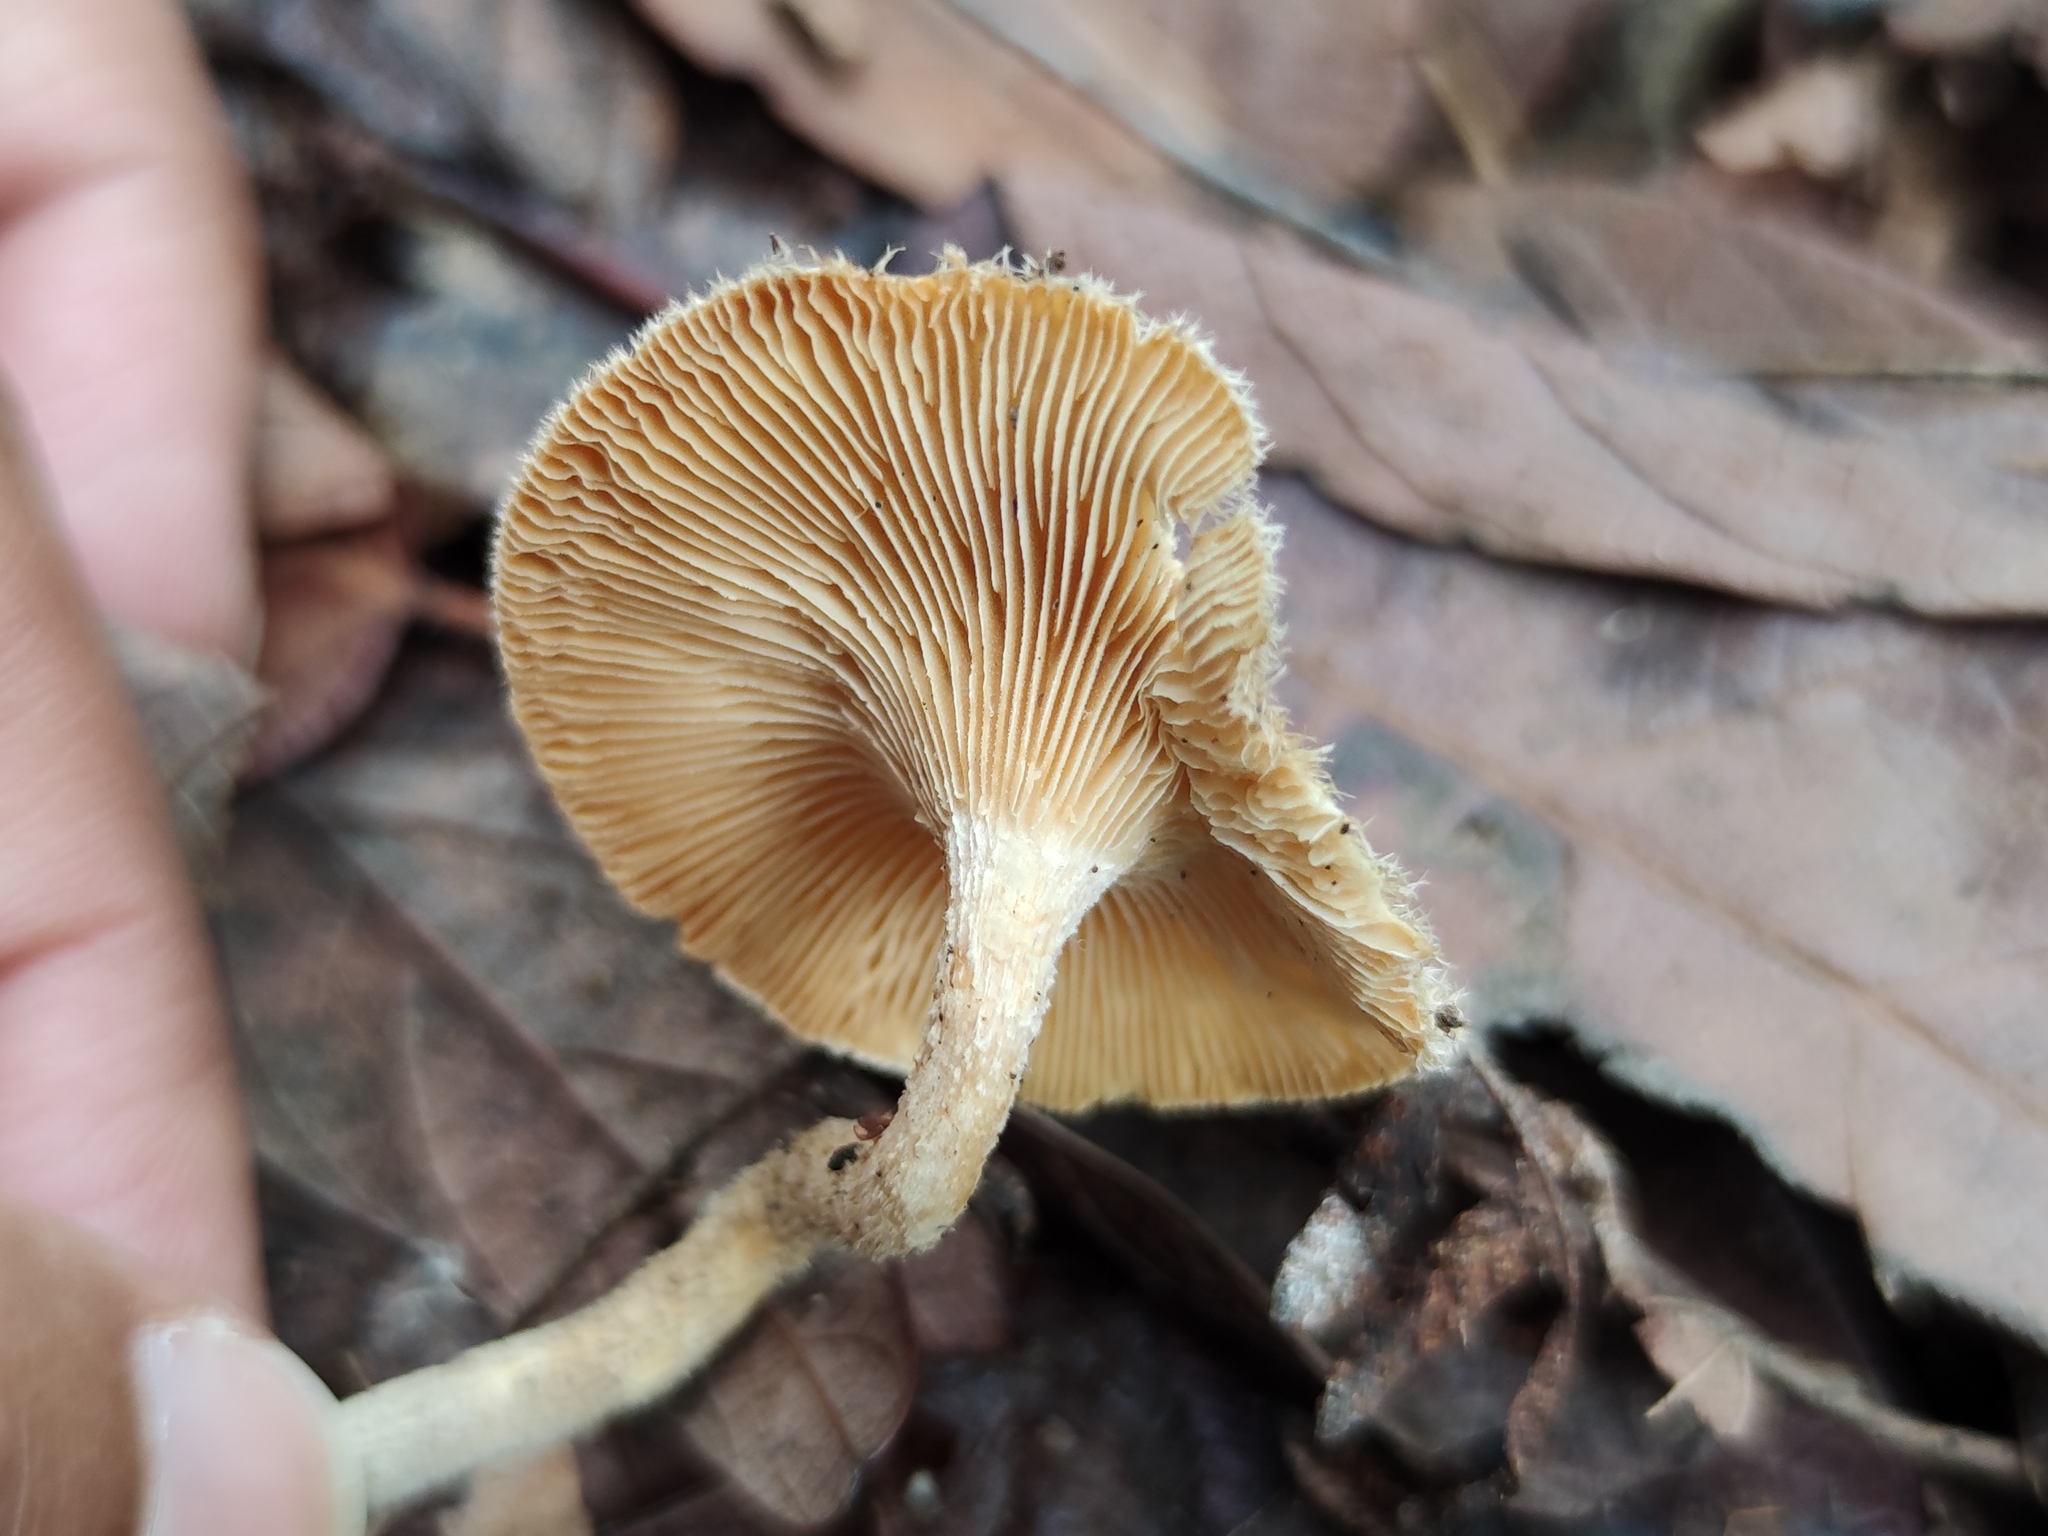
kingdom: Fungi
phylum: Basidiomycota
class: Agaricomycetes
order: Polyporales
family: Polyporaceae
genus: Lentinus
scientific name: Lentinus crinitus
